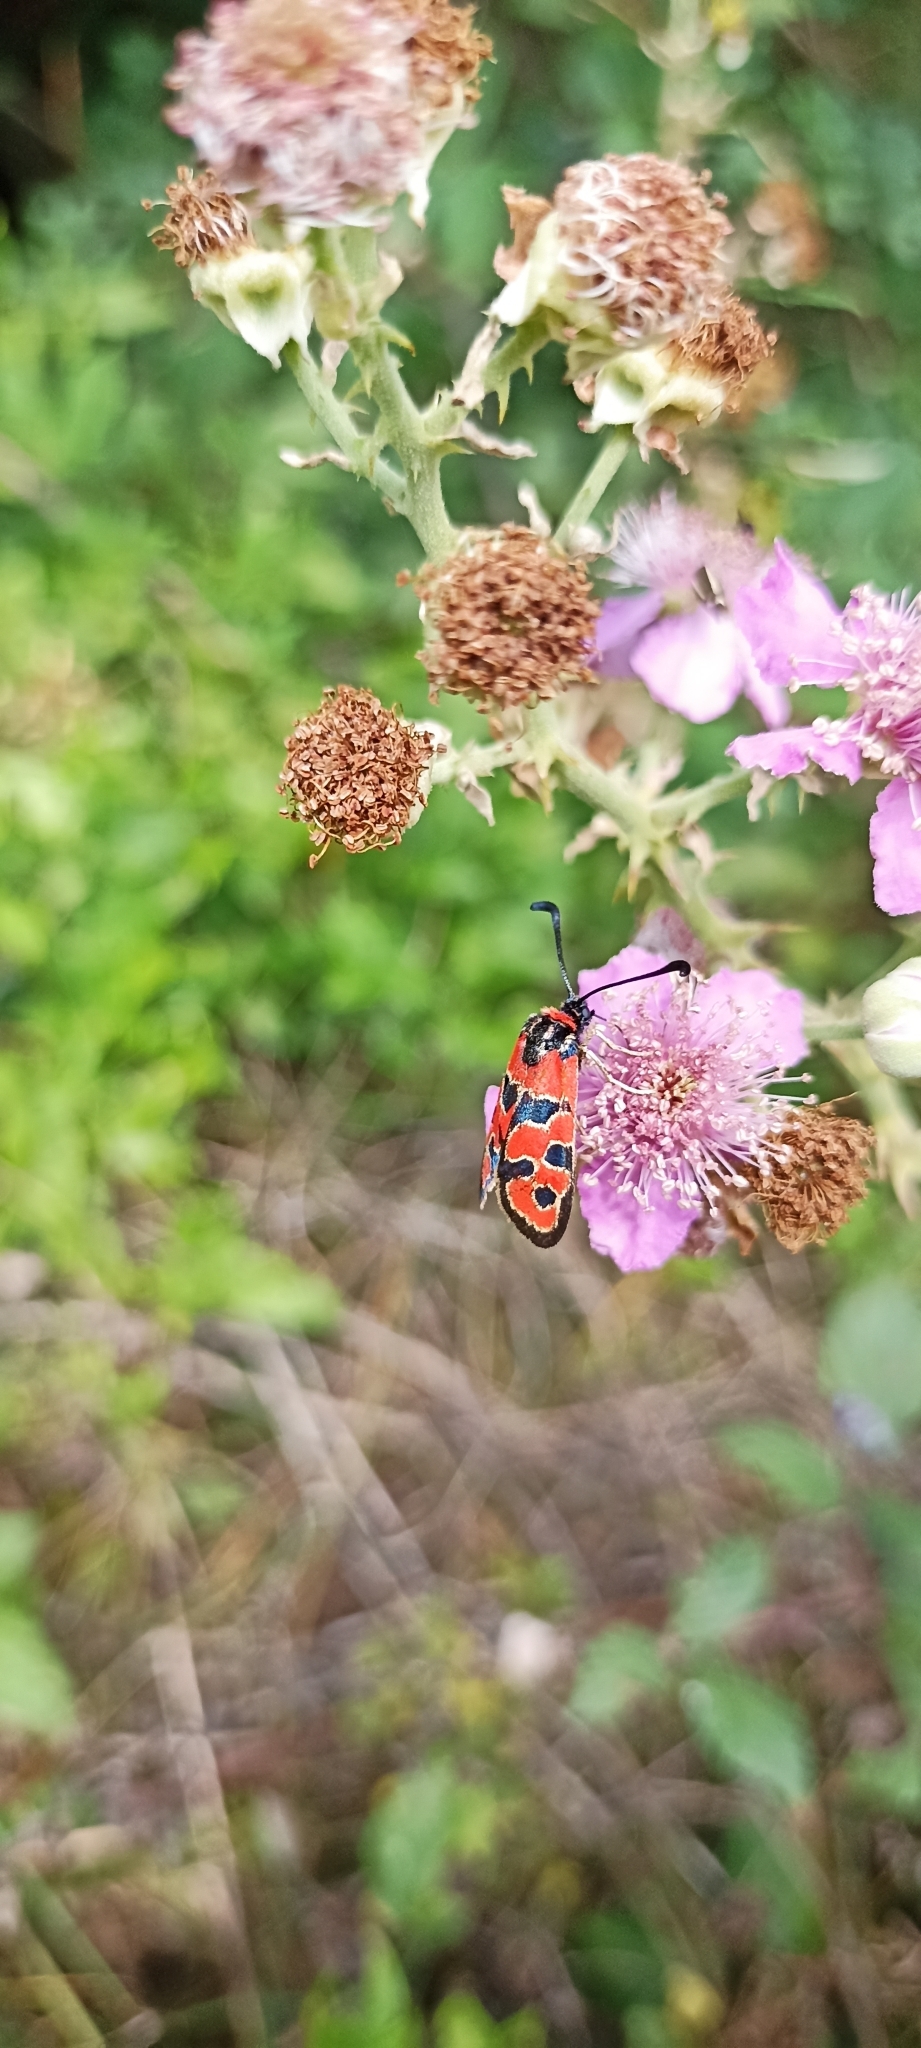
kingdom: Animalia
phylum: Arthropoda
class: Insecta
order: Lepidoptera
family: Zygaenidae
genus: Zygaena
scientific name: Zygaena fausta
